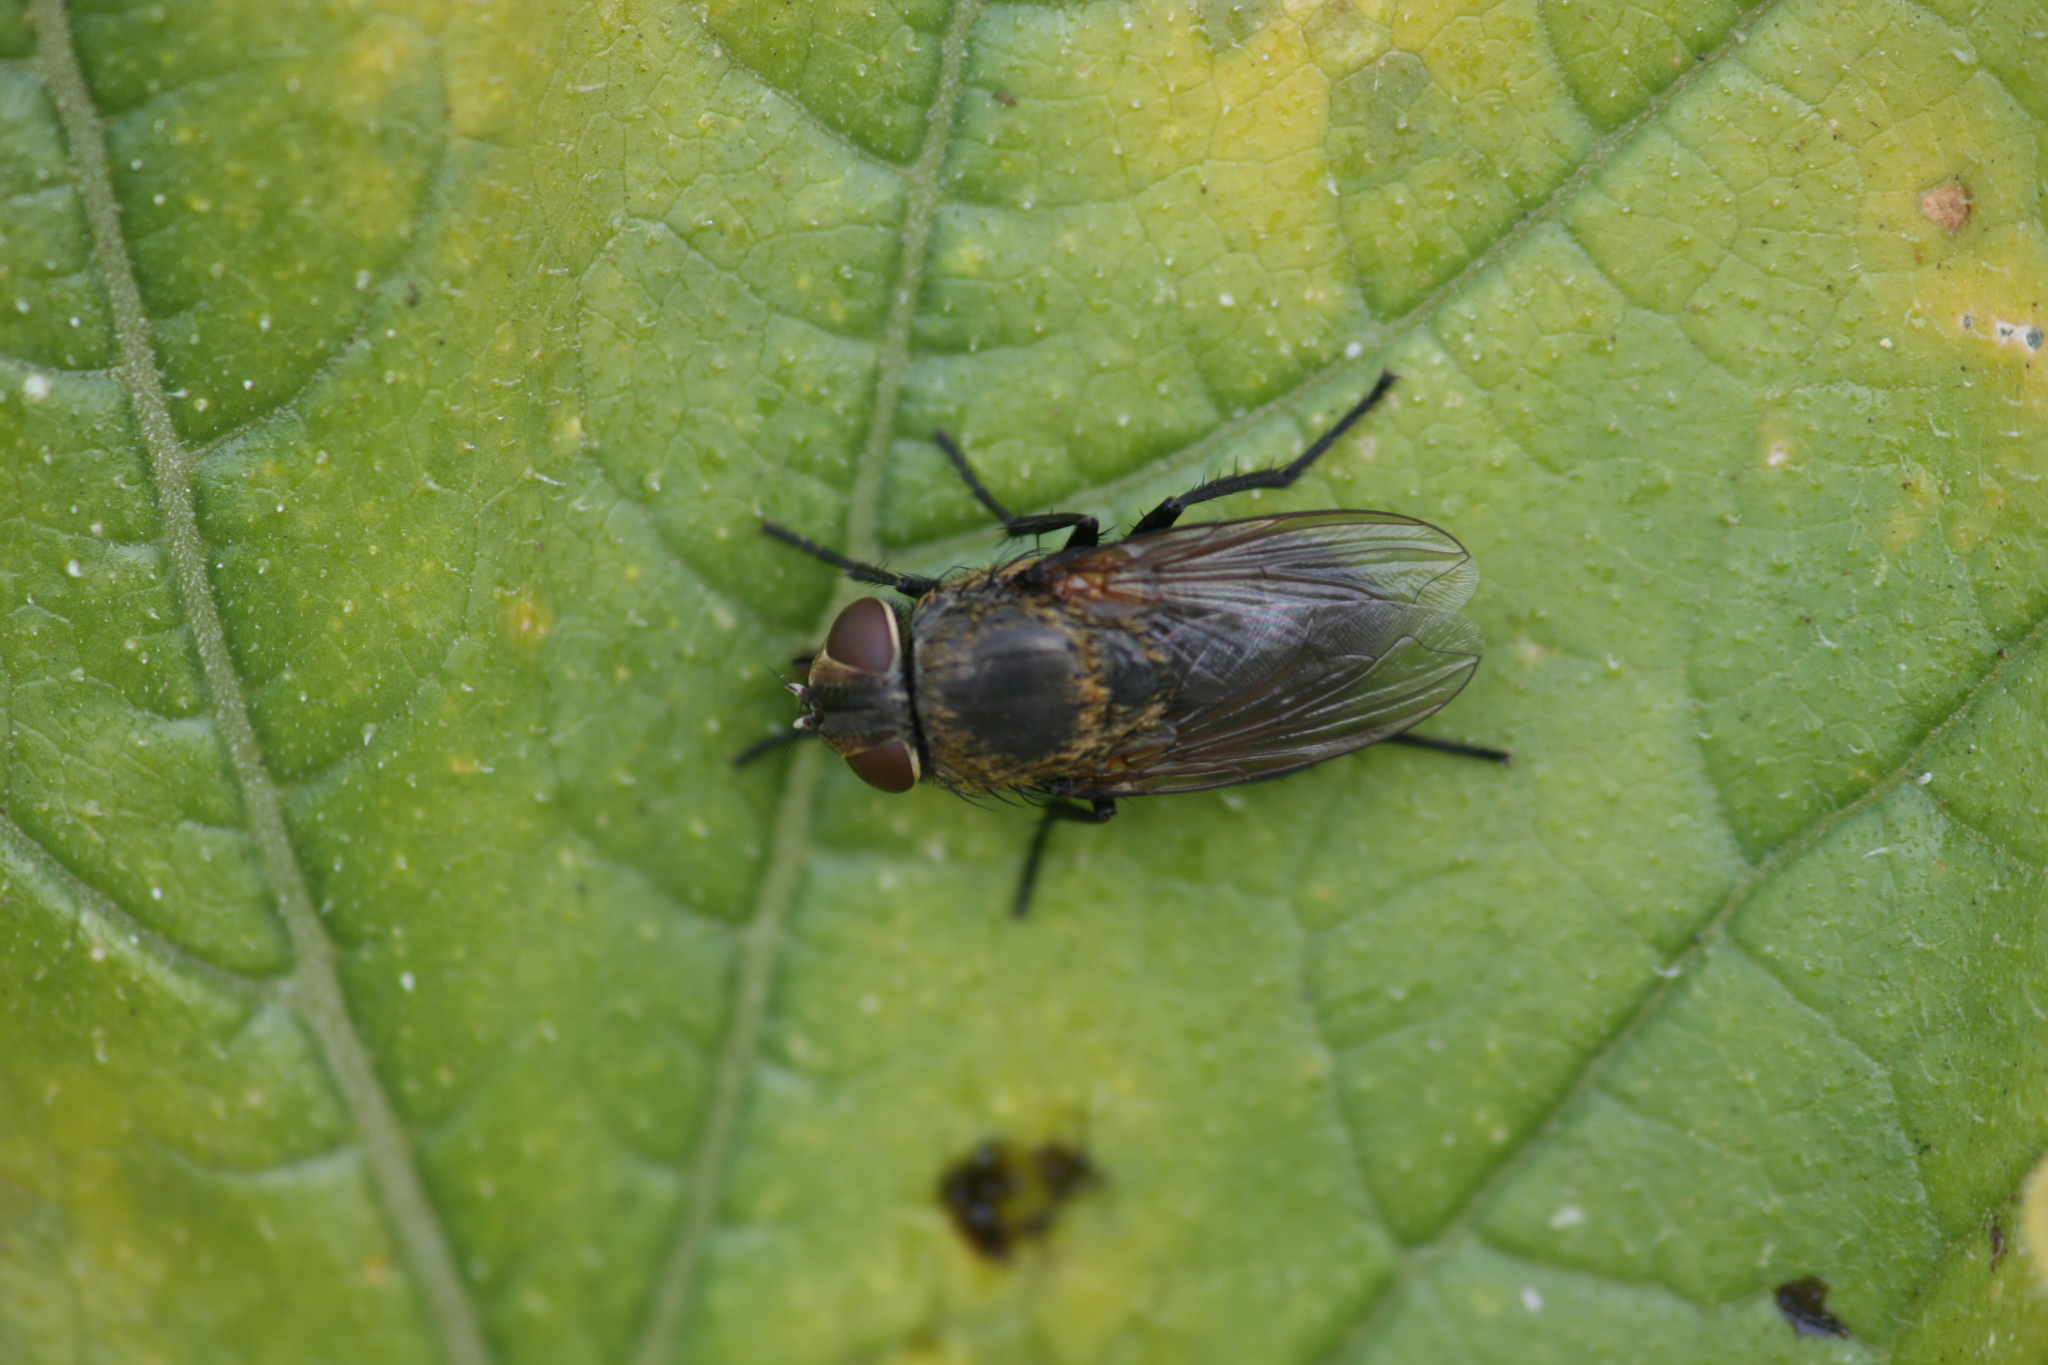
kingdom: Animalia
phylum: Arthropoda
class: Insecta
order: Diptera
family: Polleniidae
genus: Pollenia
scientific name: Pollenia amentaria
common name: Black-bellied clusterfly
